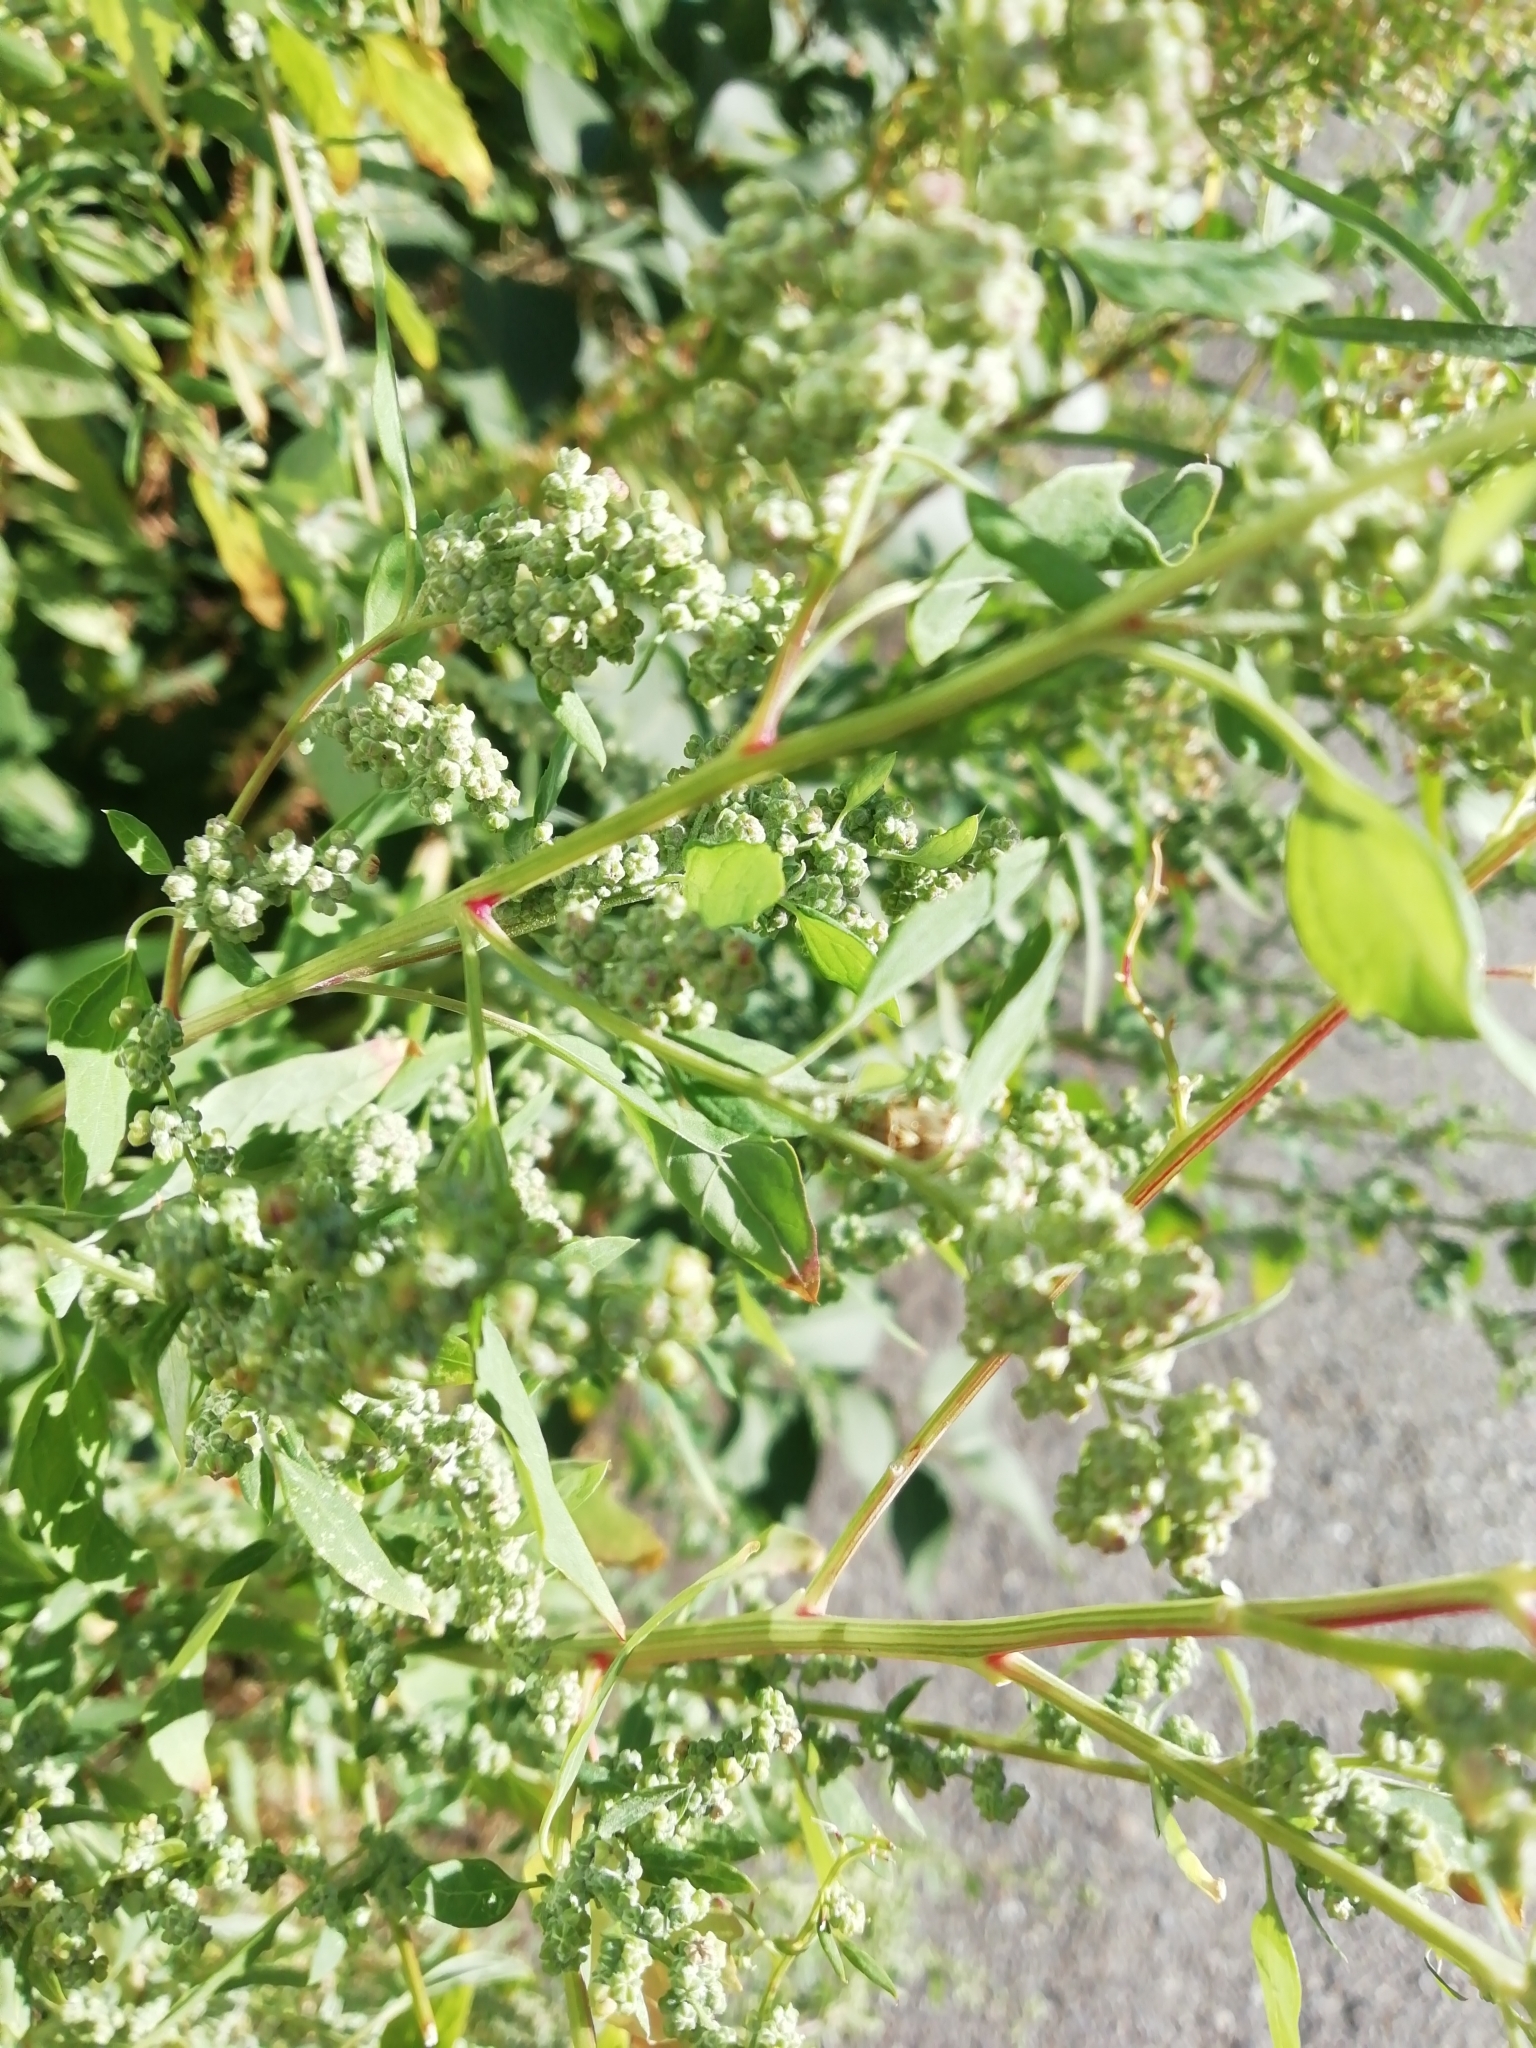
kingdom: Plantae
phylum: Tracheophyta
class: Magnoliopsida
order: Caryophyllales
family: Amaranthaceae
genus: Chenopodium
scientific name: Chenopodium album
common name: Fat-hen
